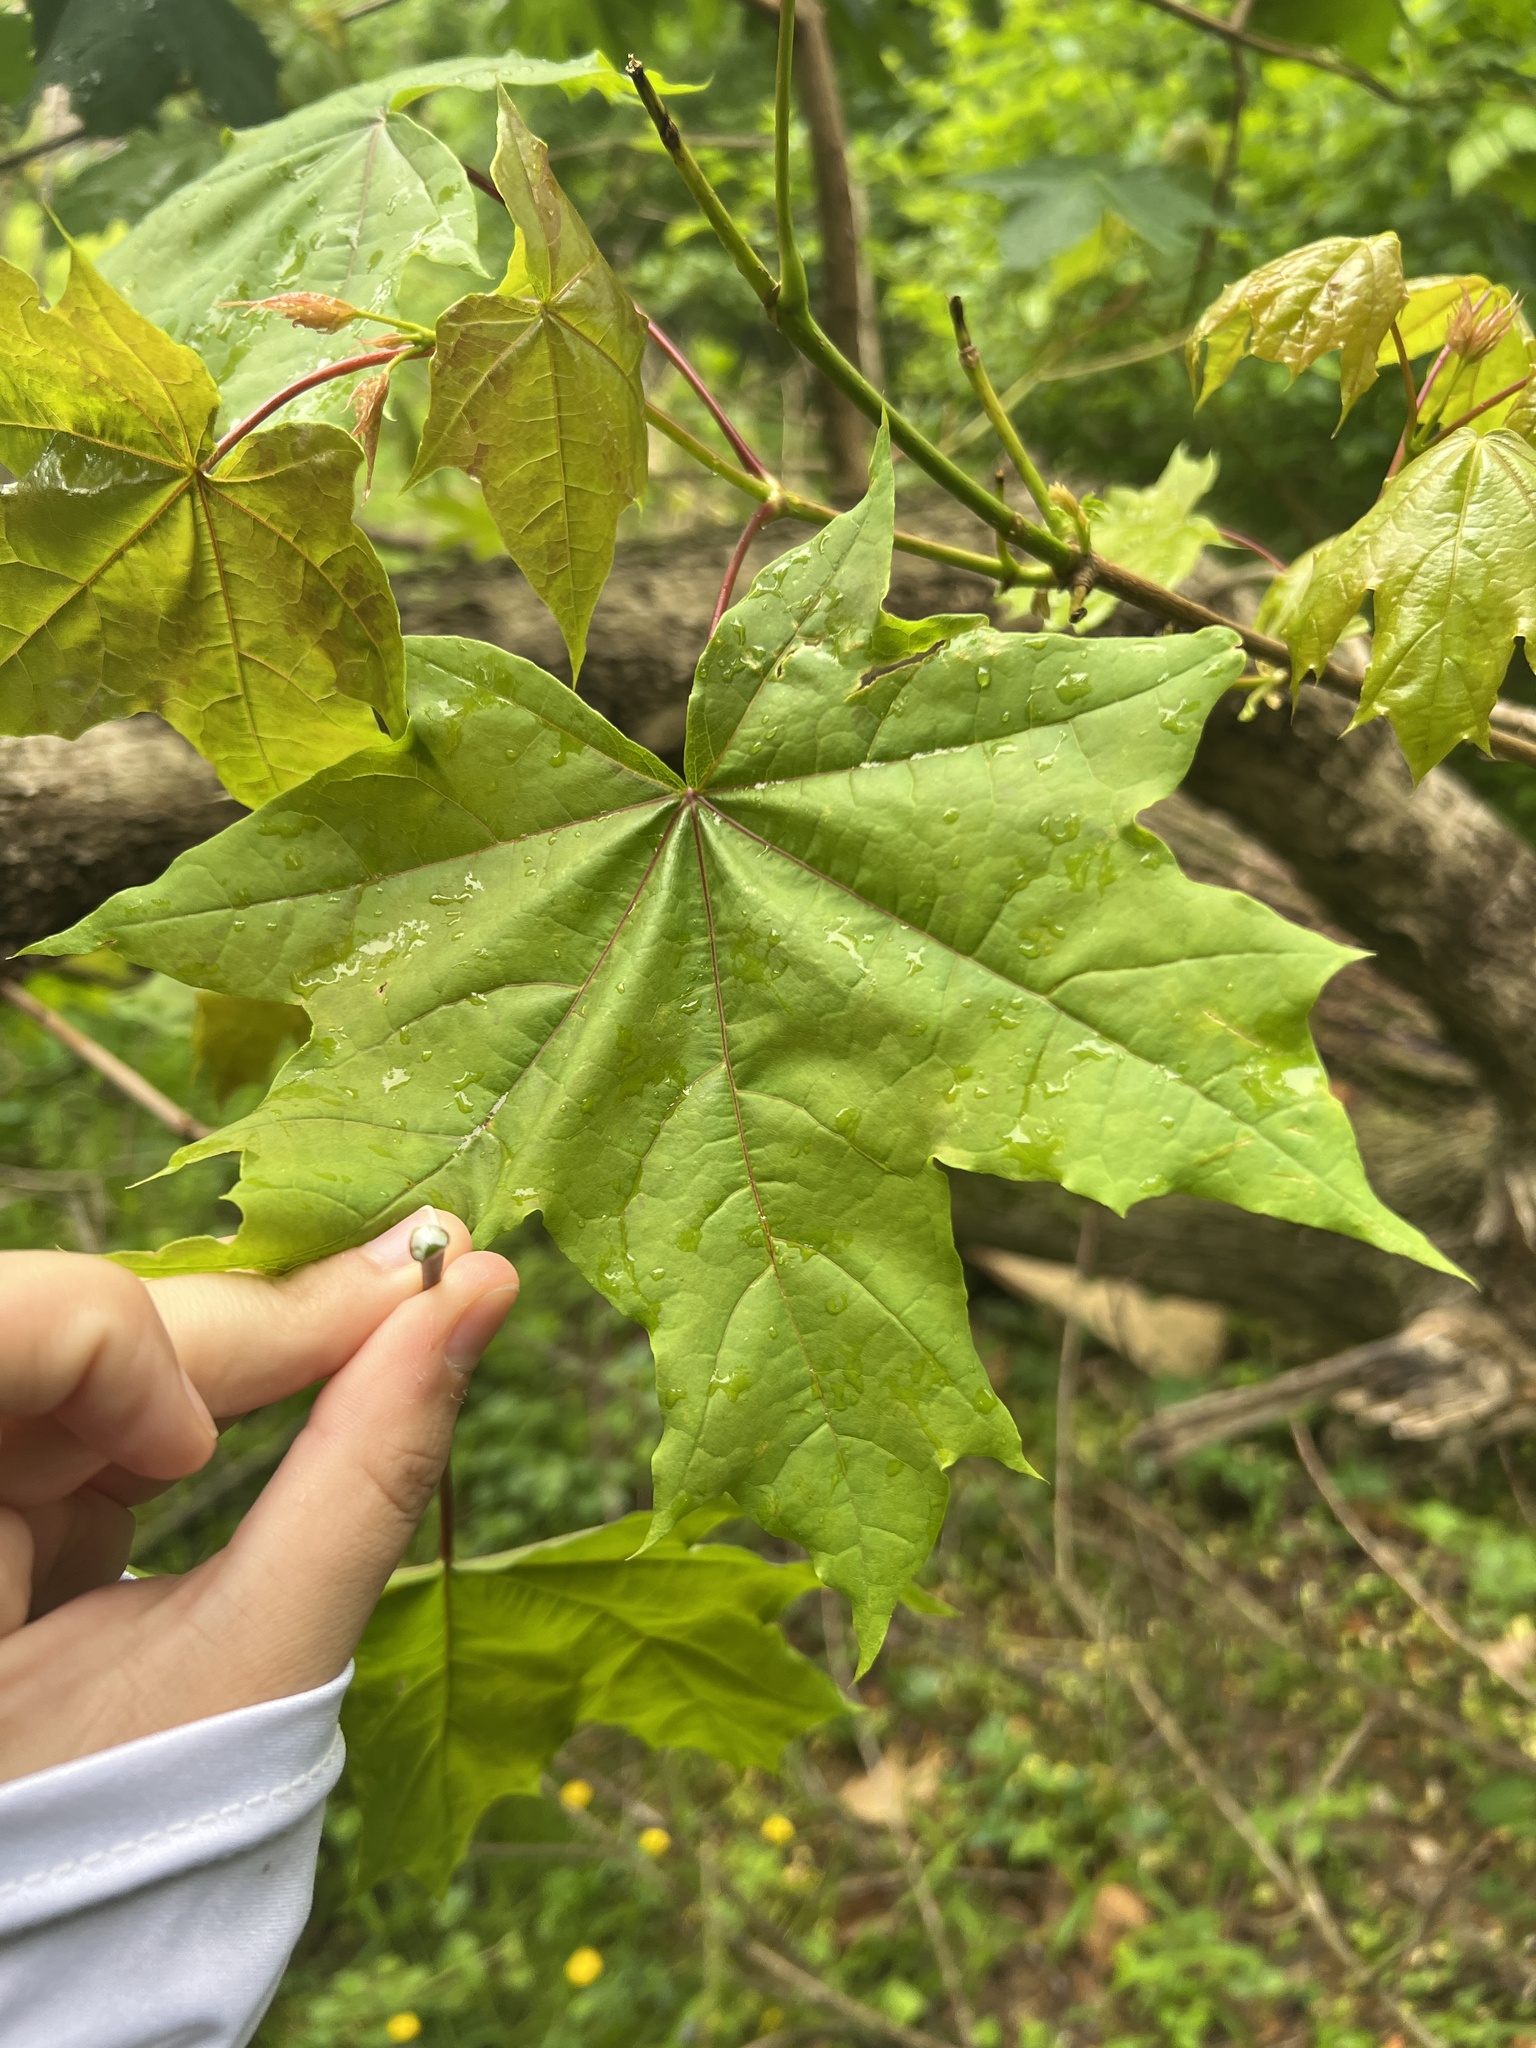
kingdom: Plantae
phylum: Tracheophyta
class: Magnoliopsida
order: Sapindales
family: Sapindaceae
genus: Acer
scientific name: Acer platanoides
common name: Norway maple
